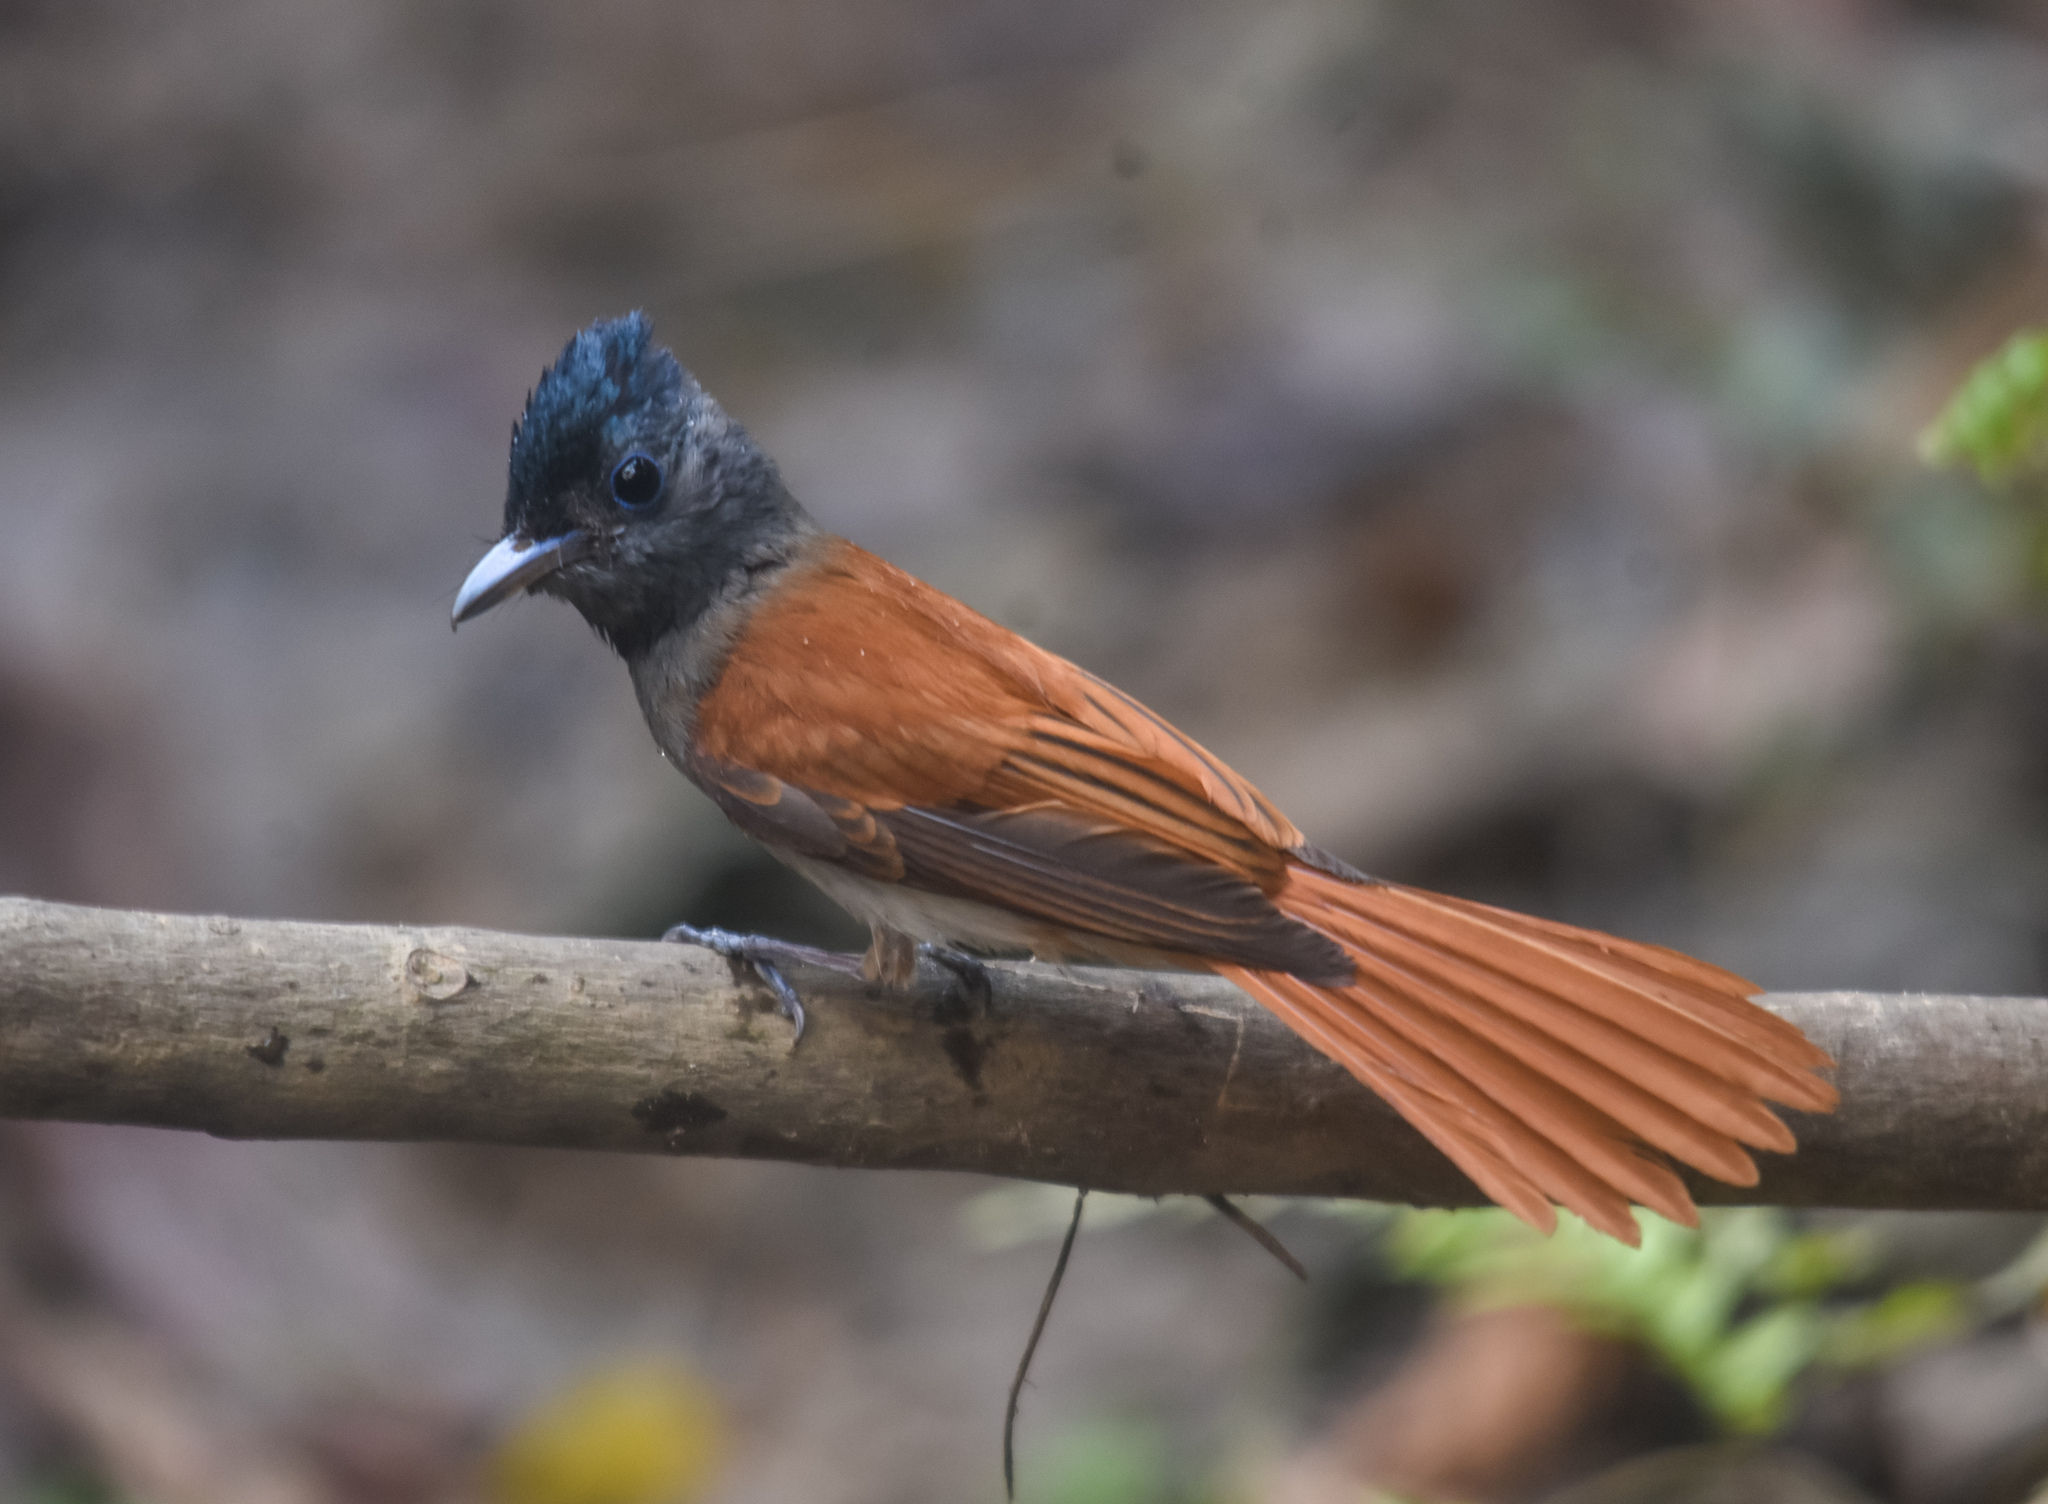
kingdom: Animalia
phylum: Chordata
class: Aves
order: Passeriformes
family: Monarchidae
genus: Terpsiphone
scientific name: Terpsiphone paradisi
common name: Indian paradise flycatcher
